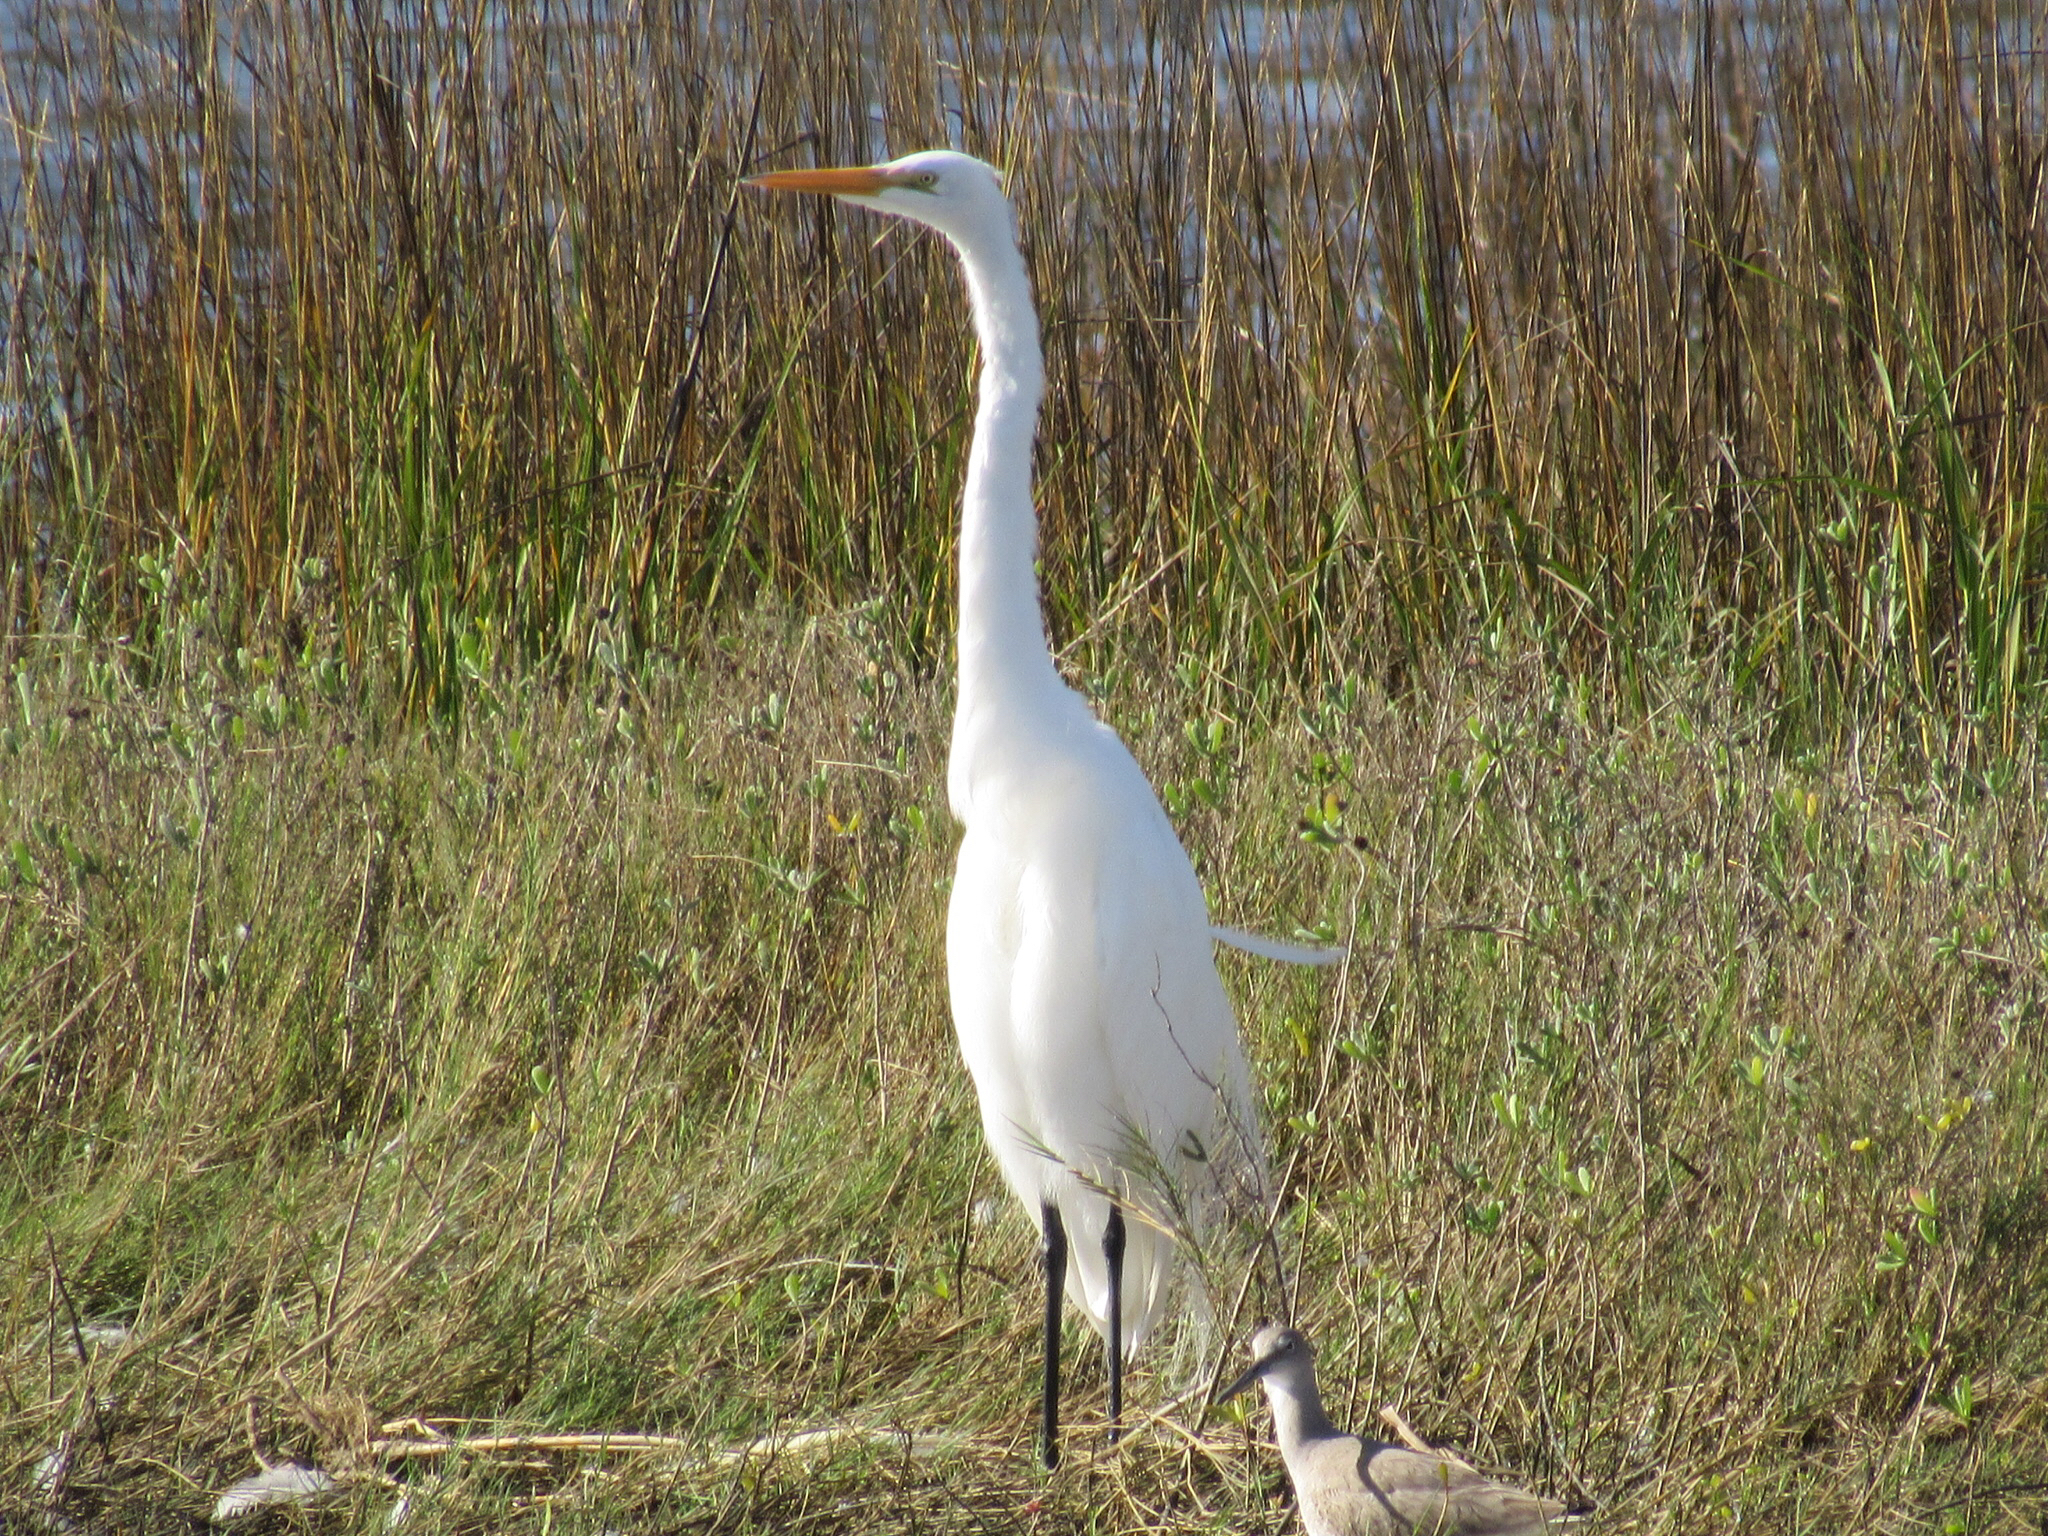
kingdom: Animalia
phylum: Chordata
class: Aves
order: Pelecaniformes
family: Ardeidae
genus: Ardea
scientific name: Ardea alba
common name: Great egret
